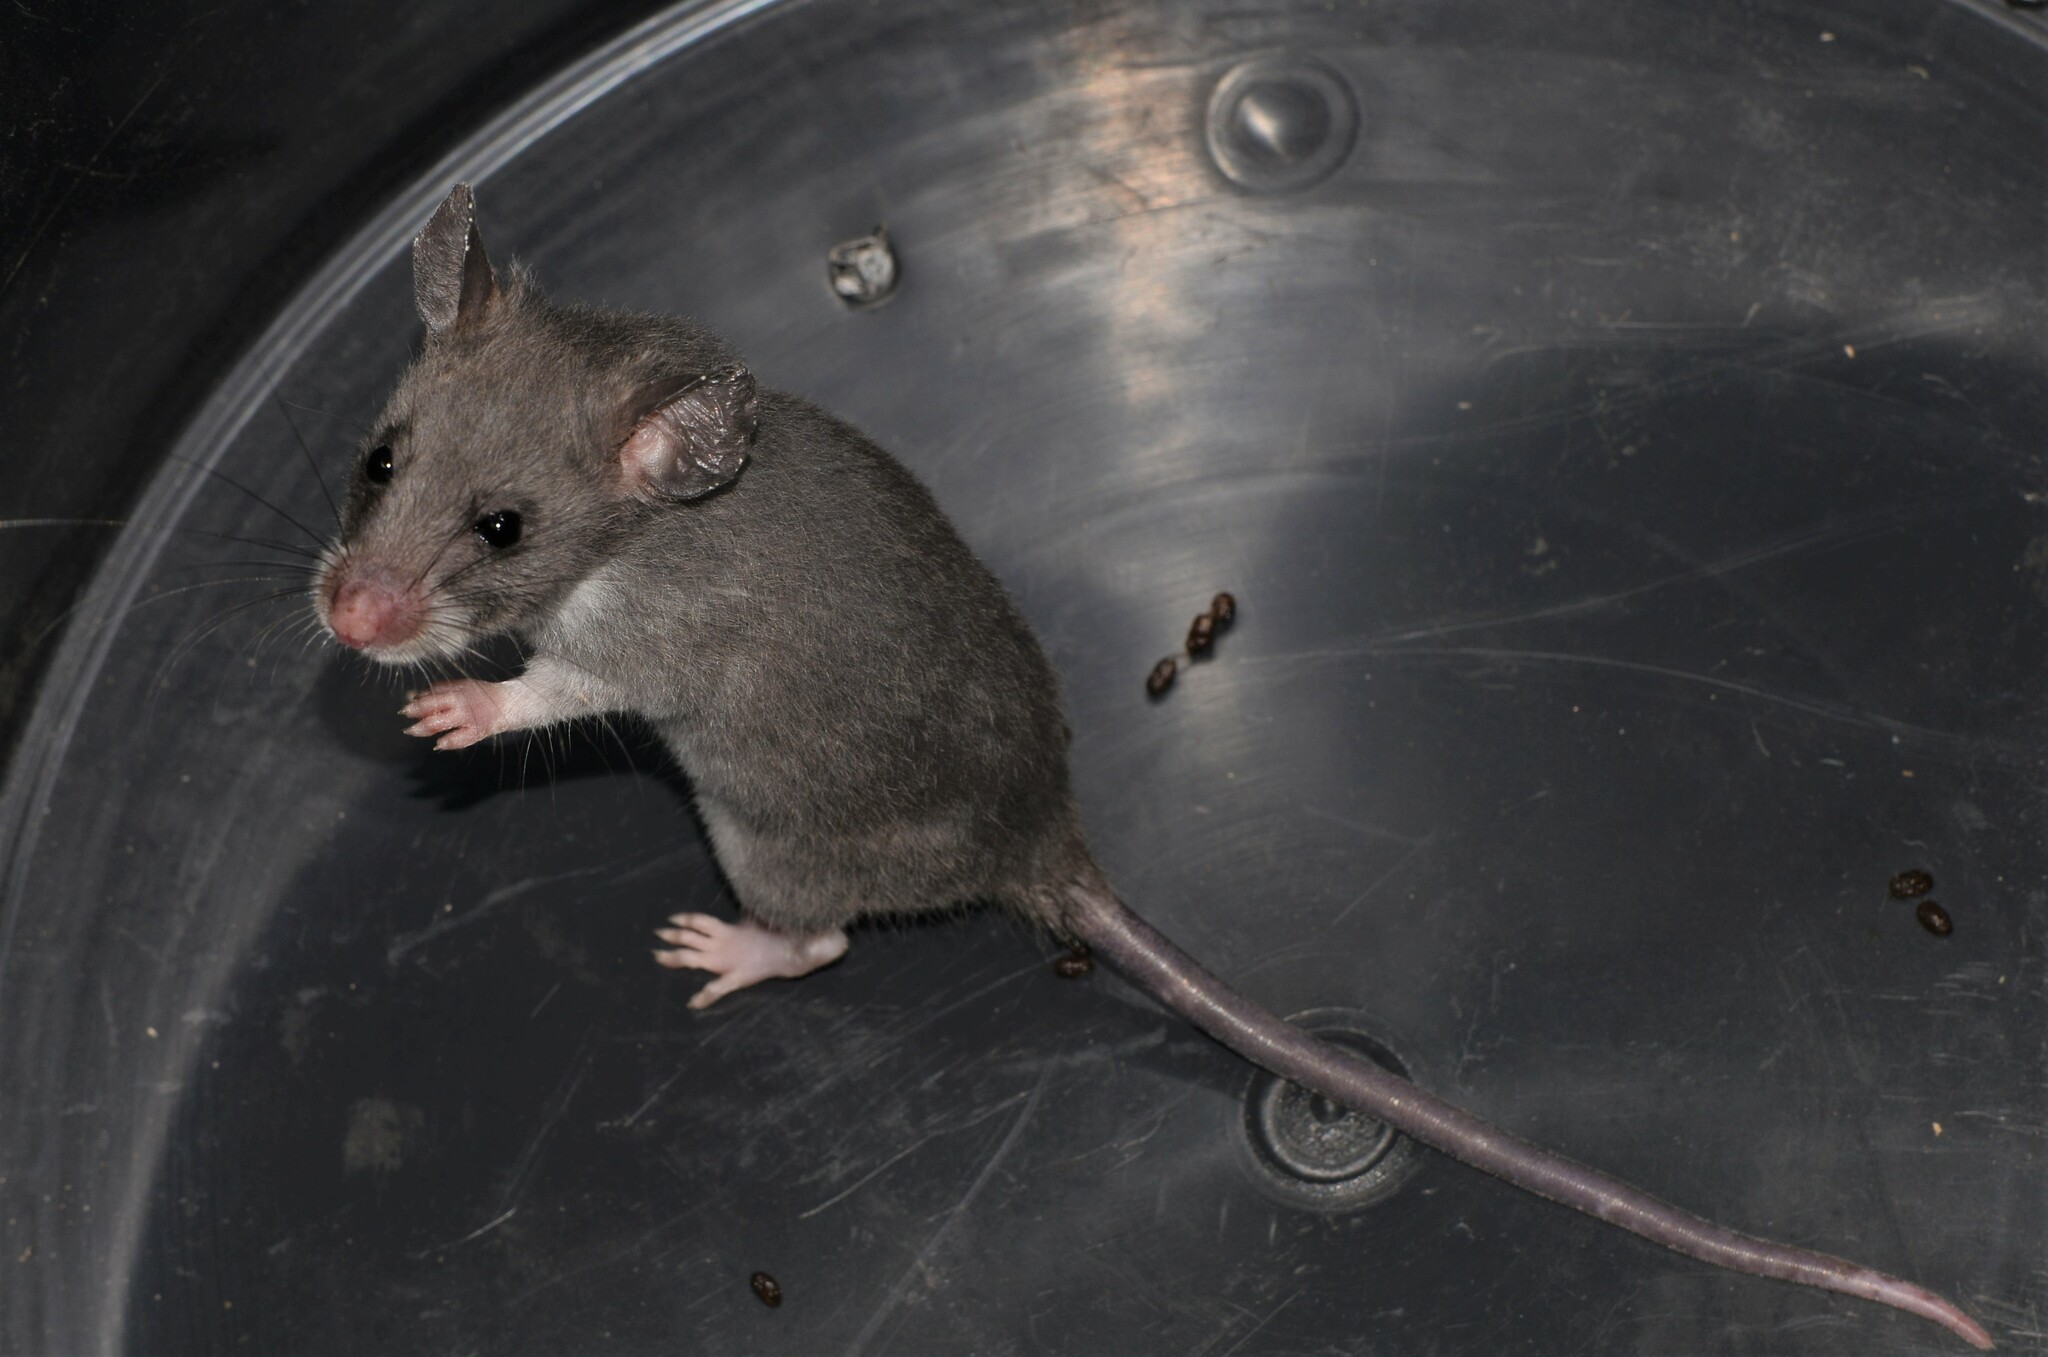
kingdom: Animalia
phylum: Chordata
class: Mammalia
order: Rodentia
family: Nesomyidae
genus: Beamys
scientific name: Beamys hindei
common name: Lesser hamster-rat, long-tailed pouched rat
